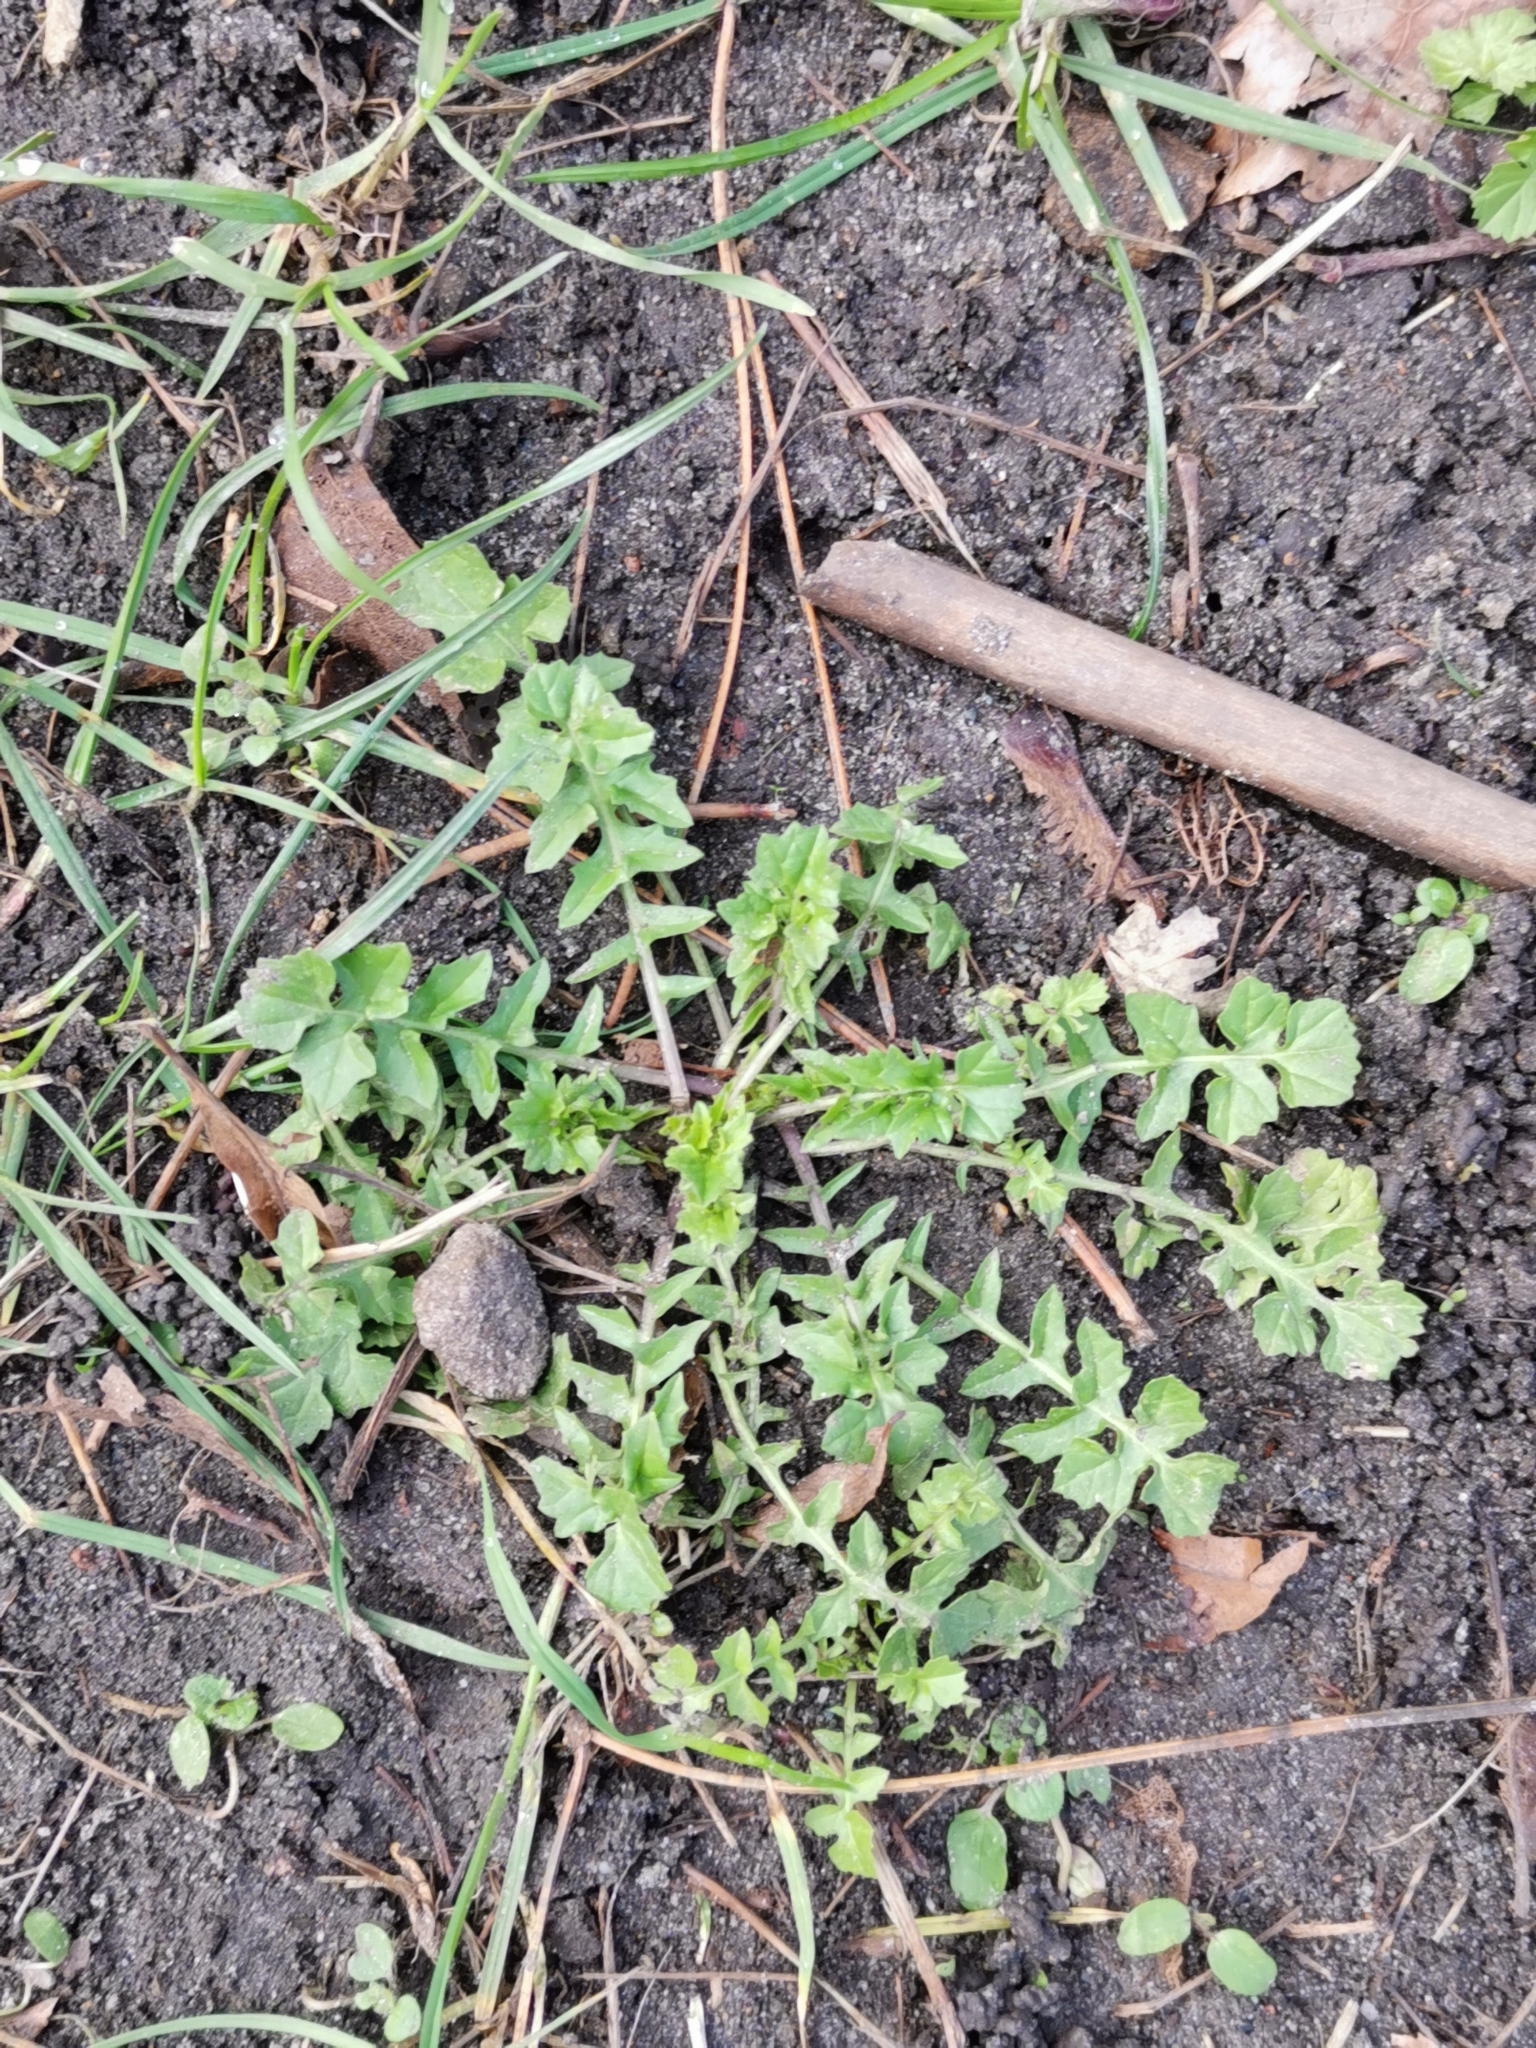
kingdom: Plantae
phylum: Tracheophyta
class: Magnoliopsida
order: Brassicales
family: Brassicaceae
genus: Sisymbrium
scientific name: Sisymbrium officinale
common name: Hedge mustard
